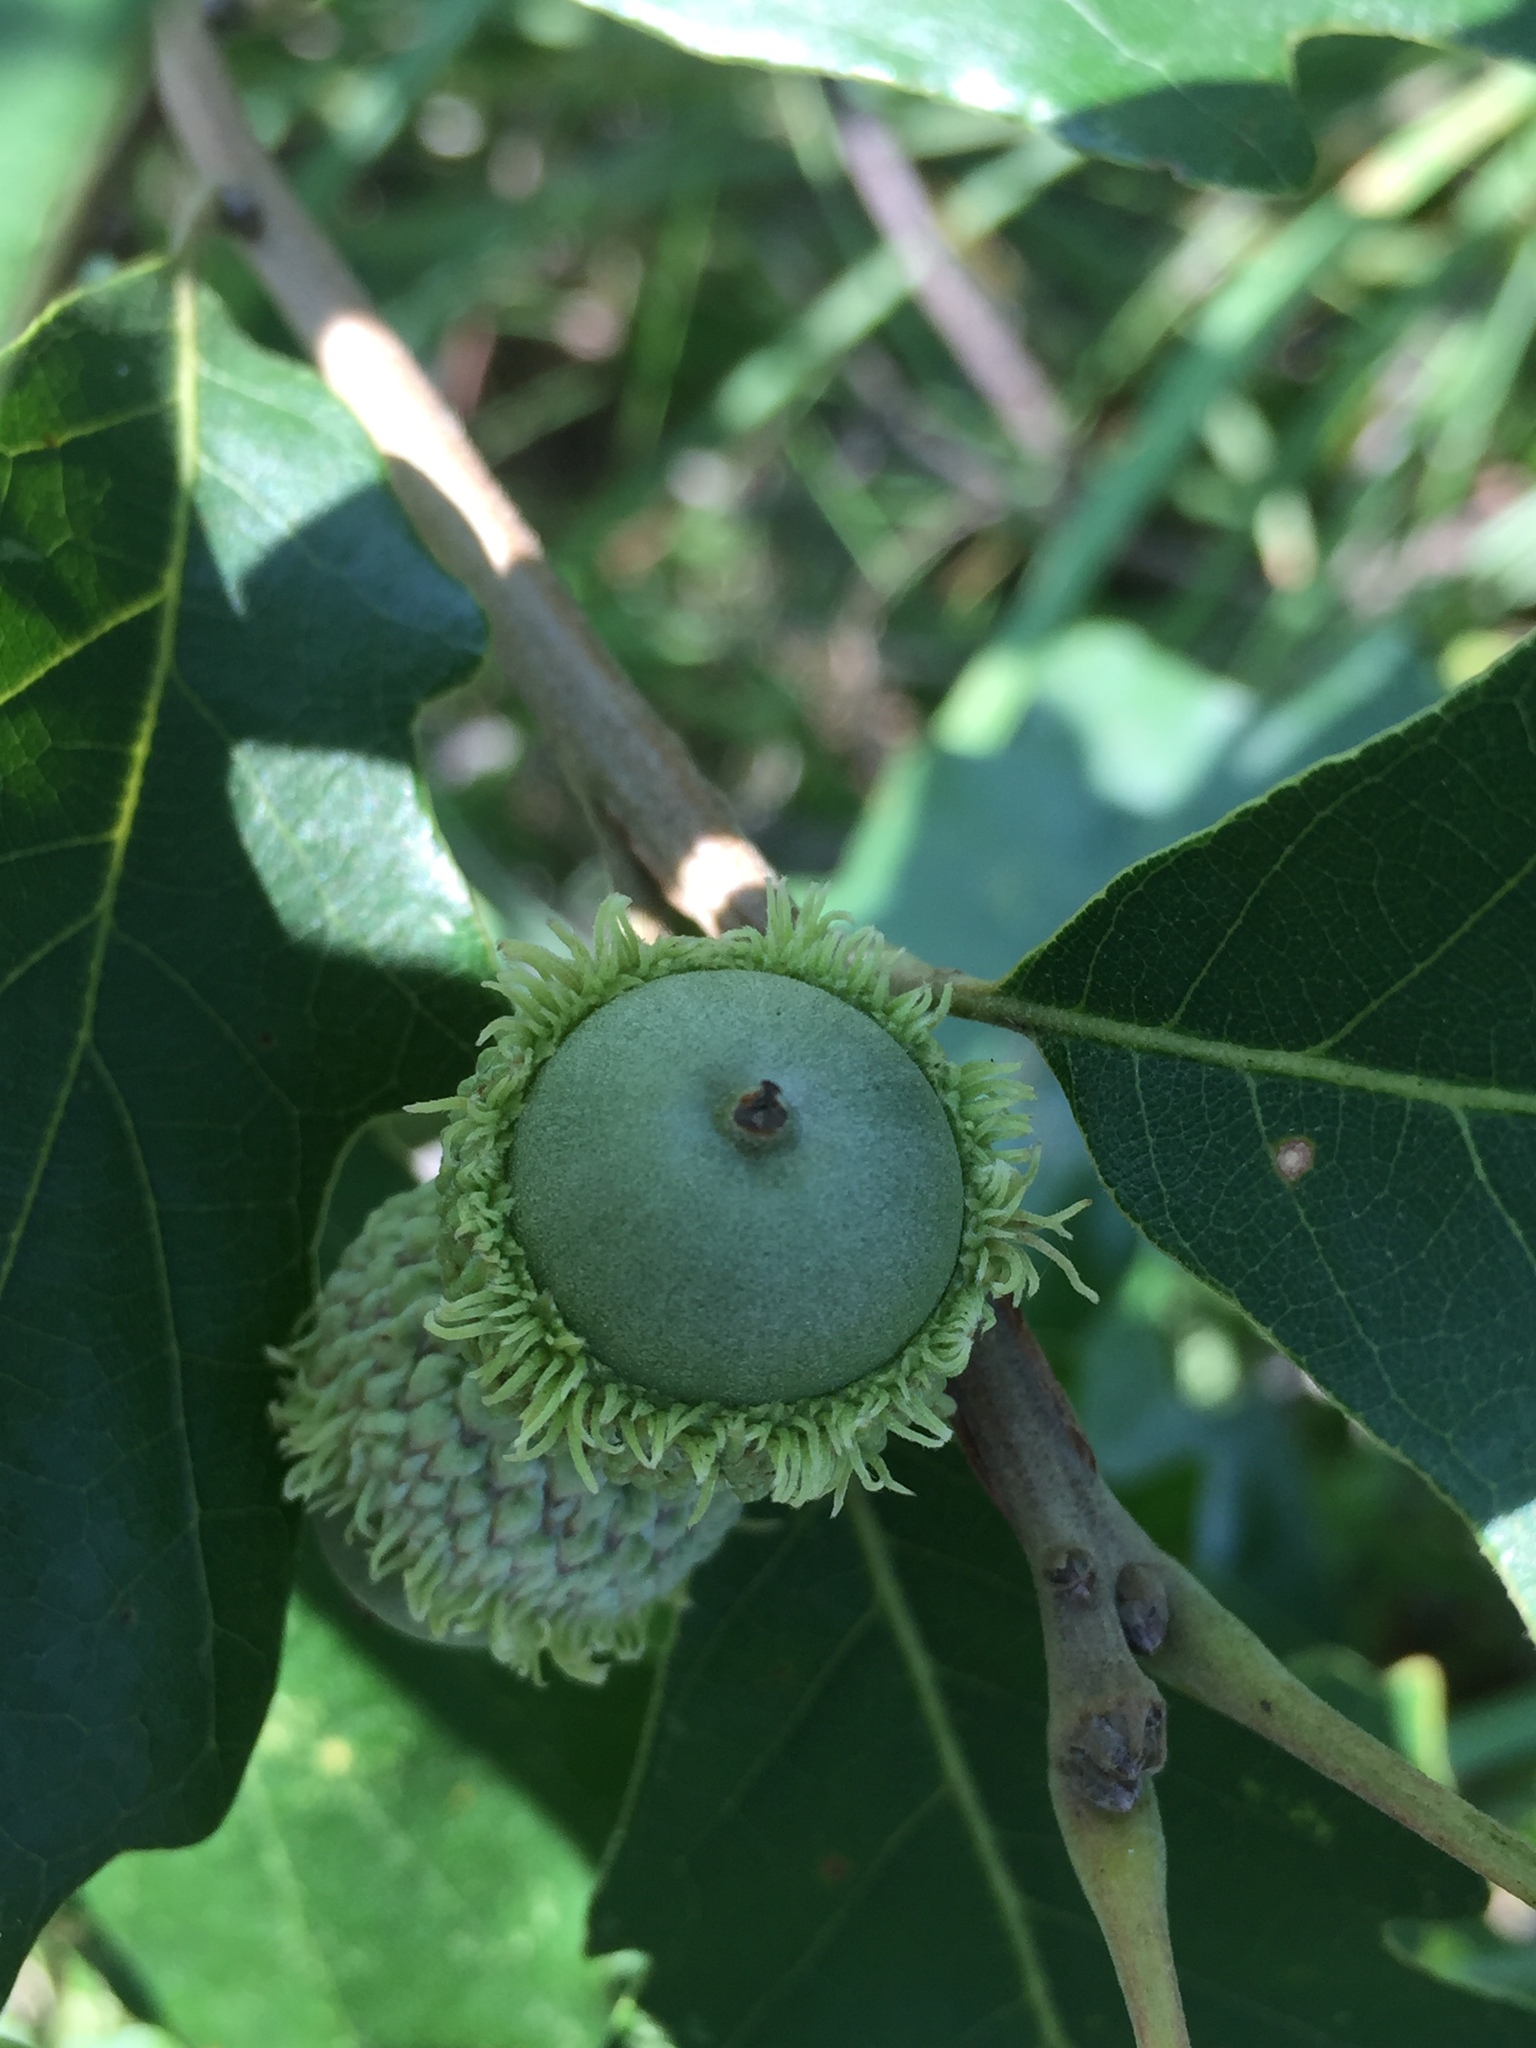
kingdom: Plantae
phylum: Tracheophyta
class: Magnoliopsida
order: Fagales
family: Fagaceae
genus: Quercus
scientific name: Quercus macrocarpa
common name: Bur oak
